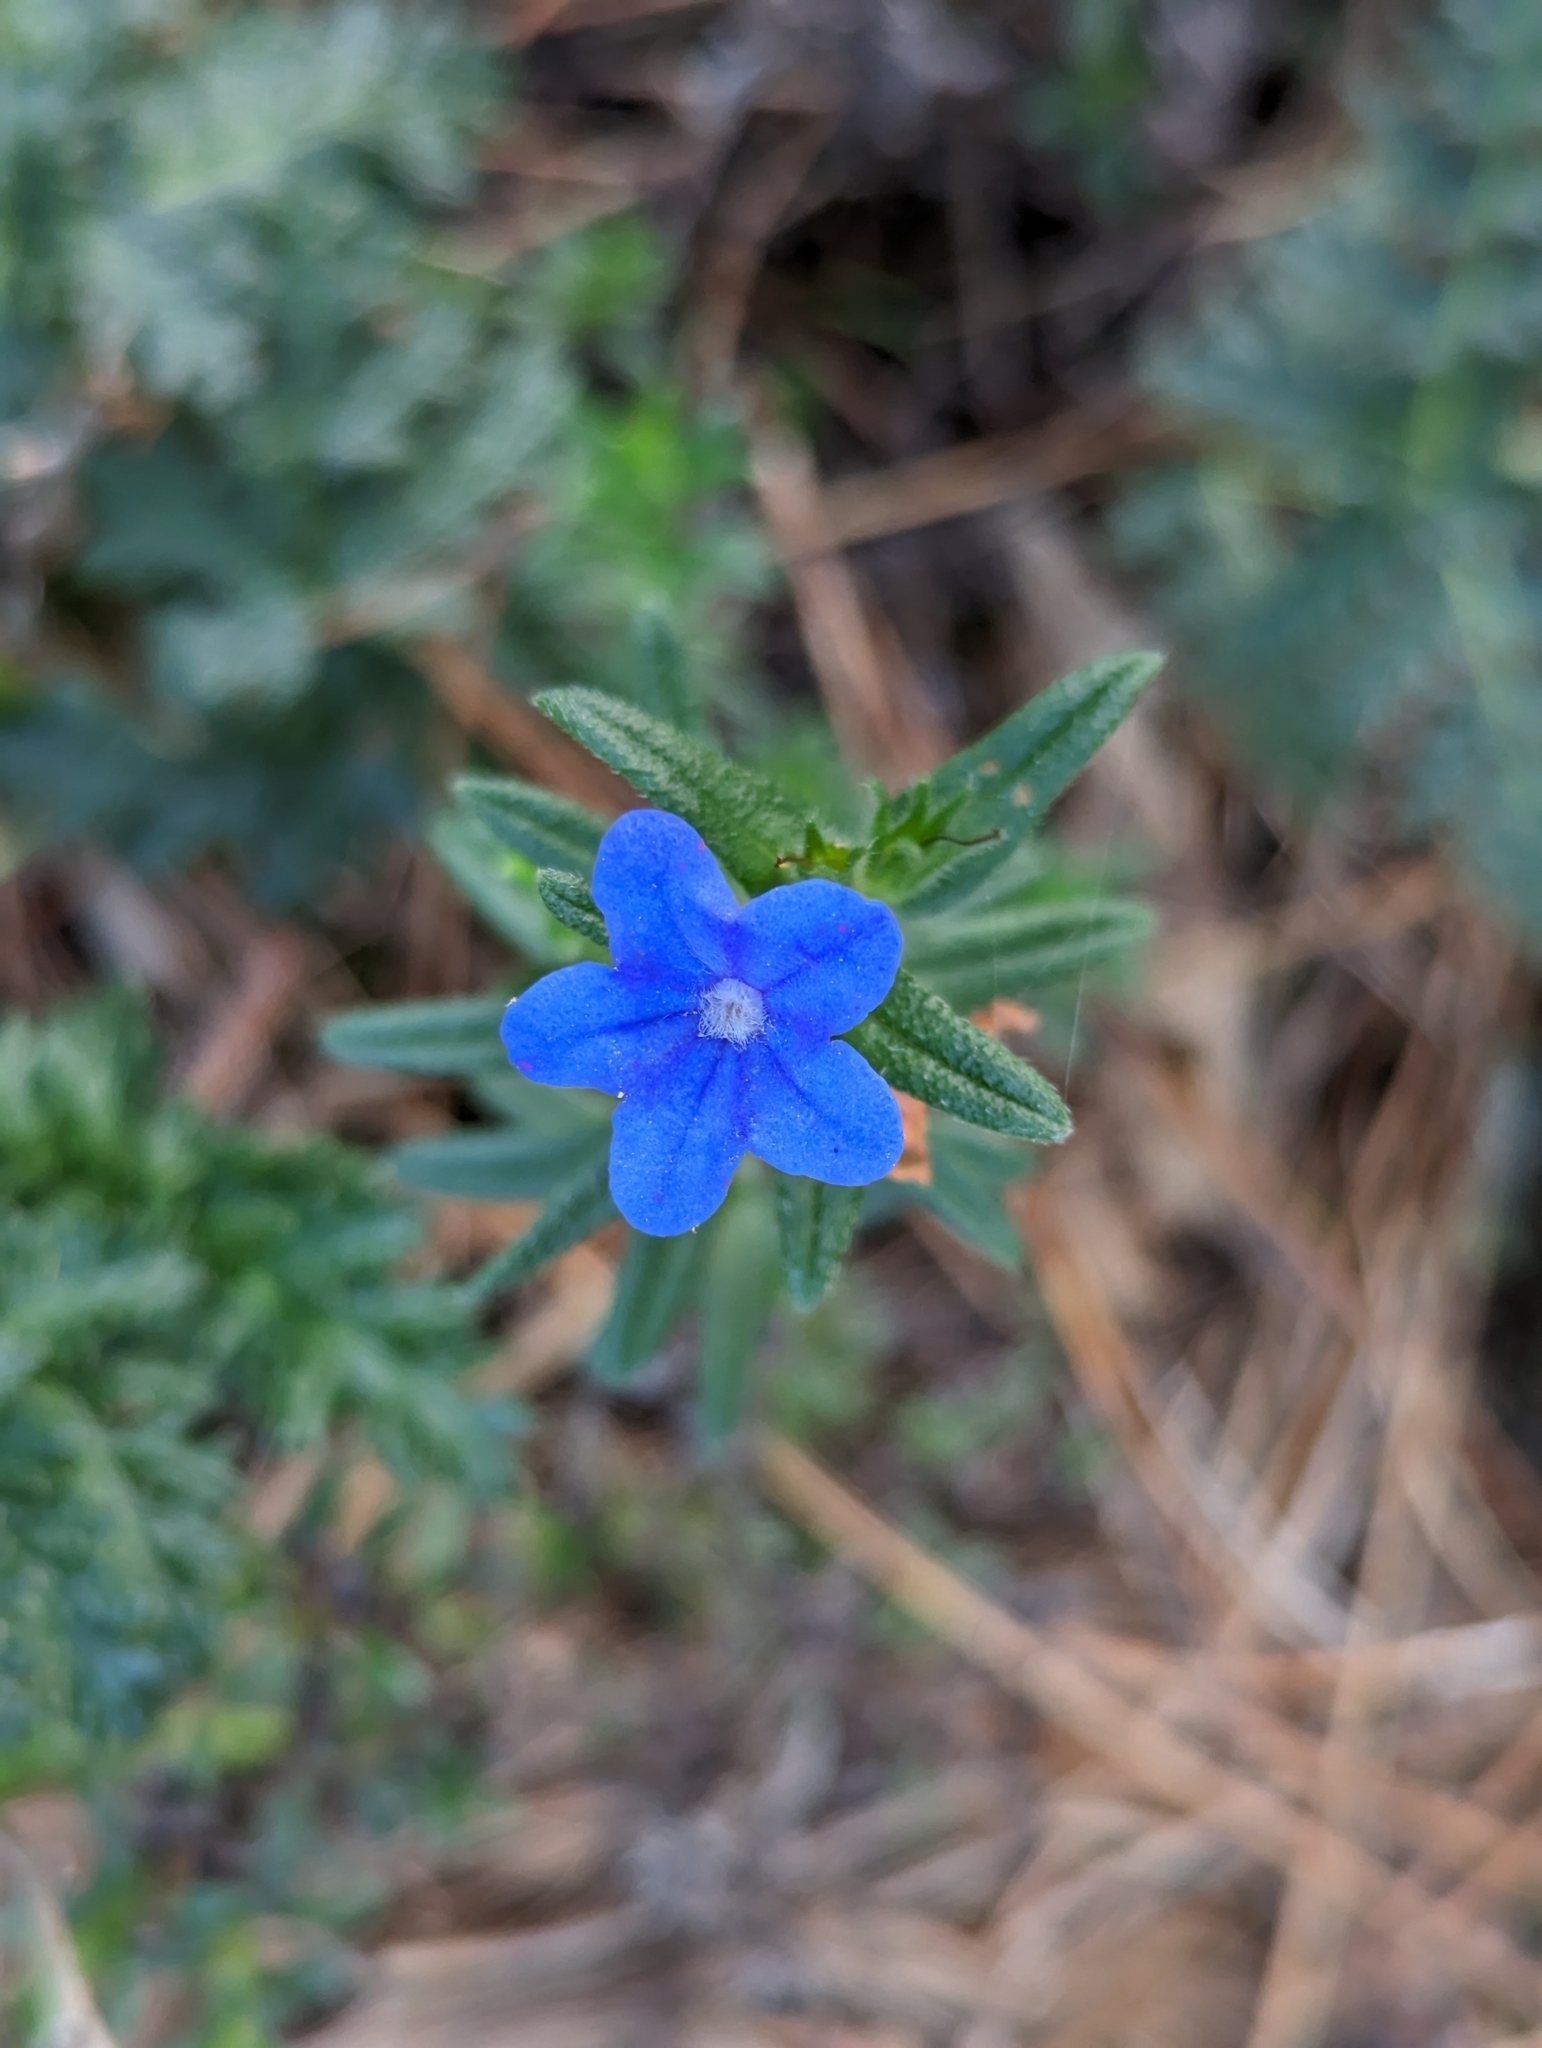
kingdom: Plantae
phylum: Tracheophyta
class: Magnoliopsida
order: Boraginales
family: Boraginaceae
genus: Glandora
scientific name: Glandora prostrata
